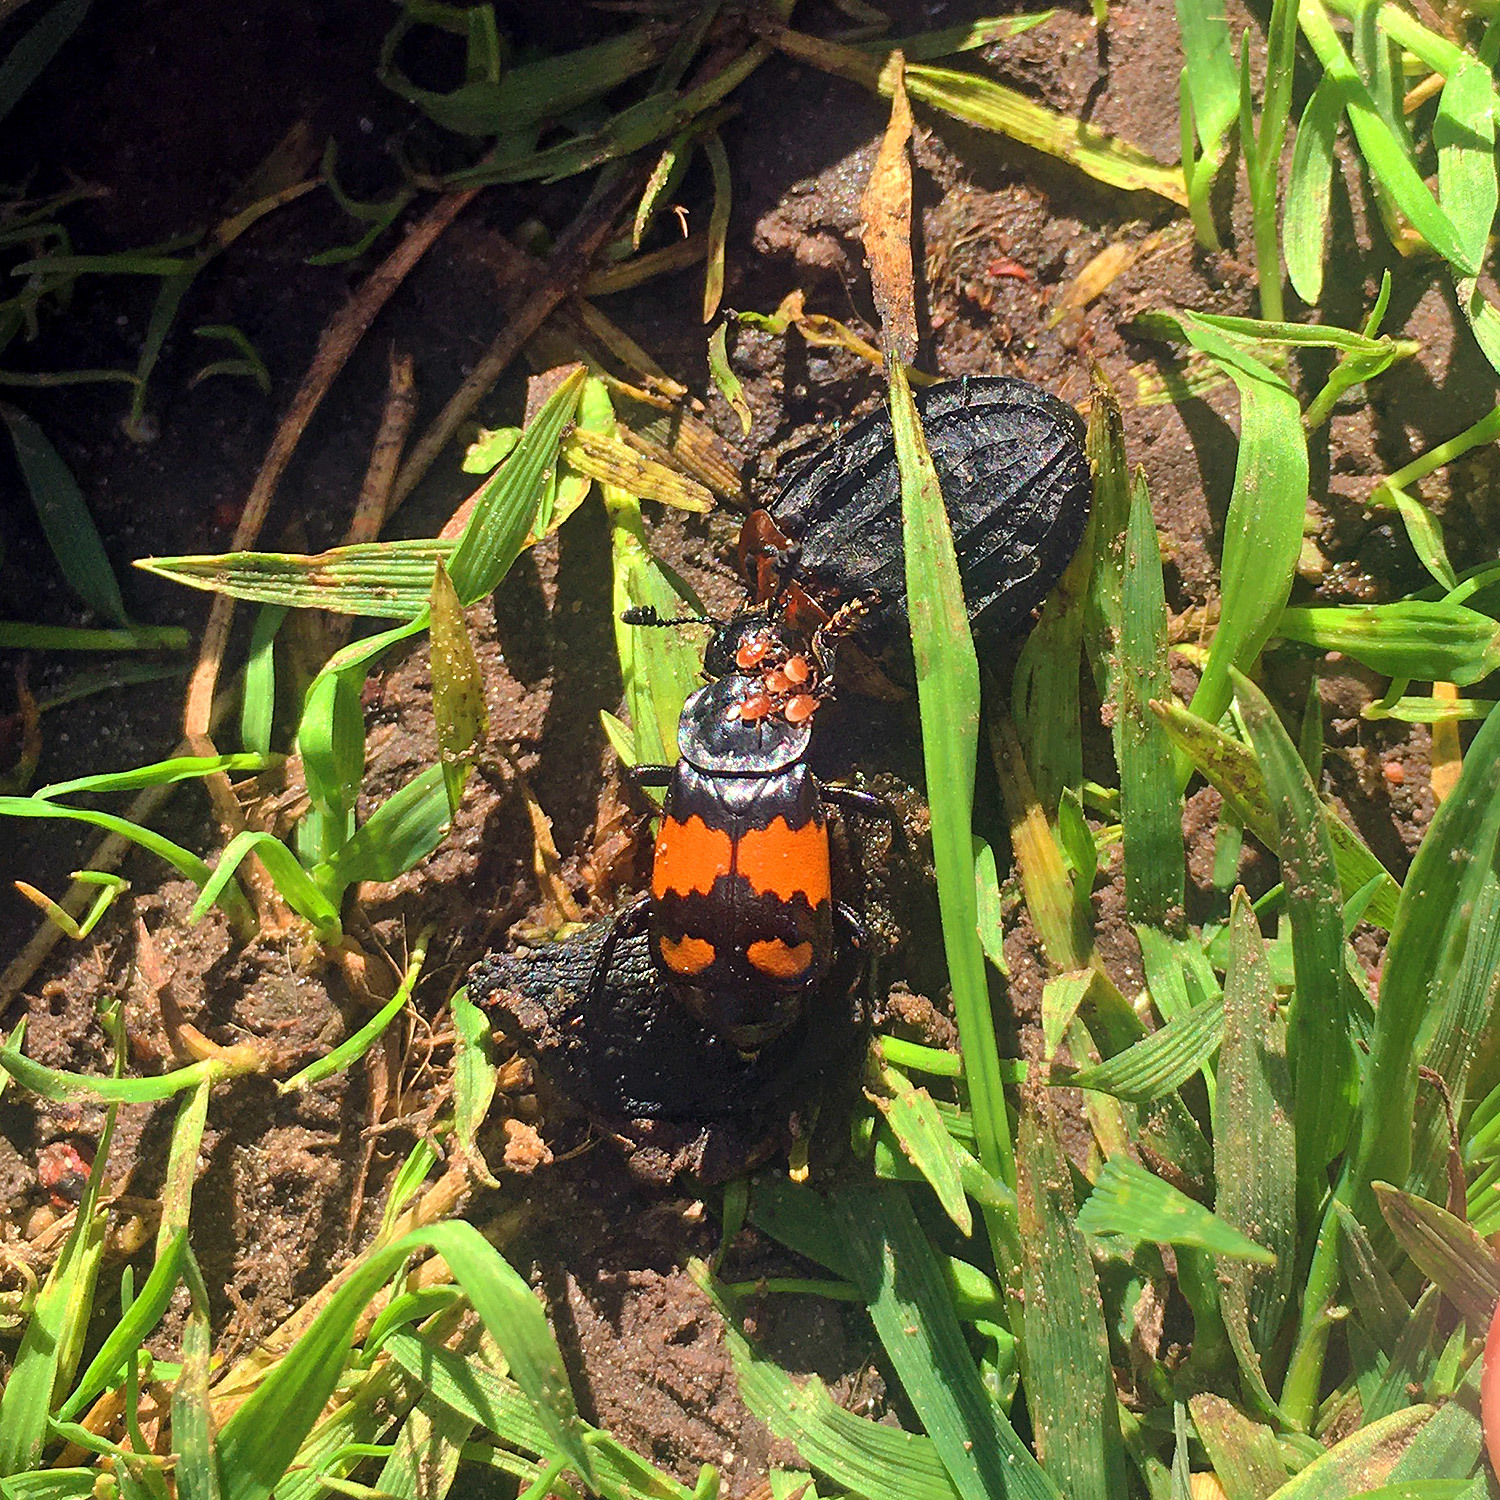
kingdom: Animalia
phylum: Arthropoda
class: Insecta
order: Coleoptera
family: Staphylinidae
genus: Nicrophorus
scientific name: Nicrophorus vespilloides
